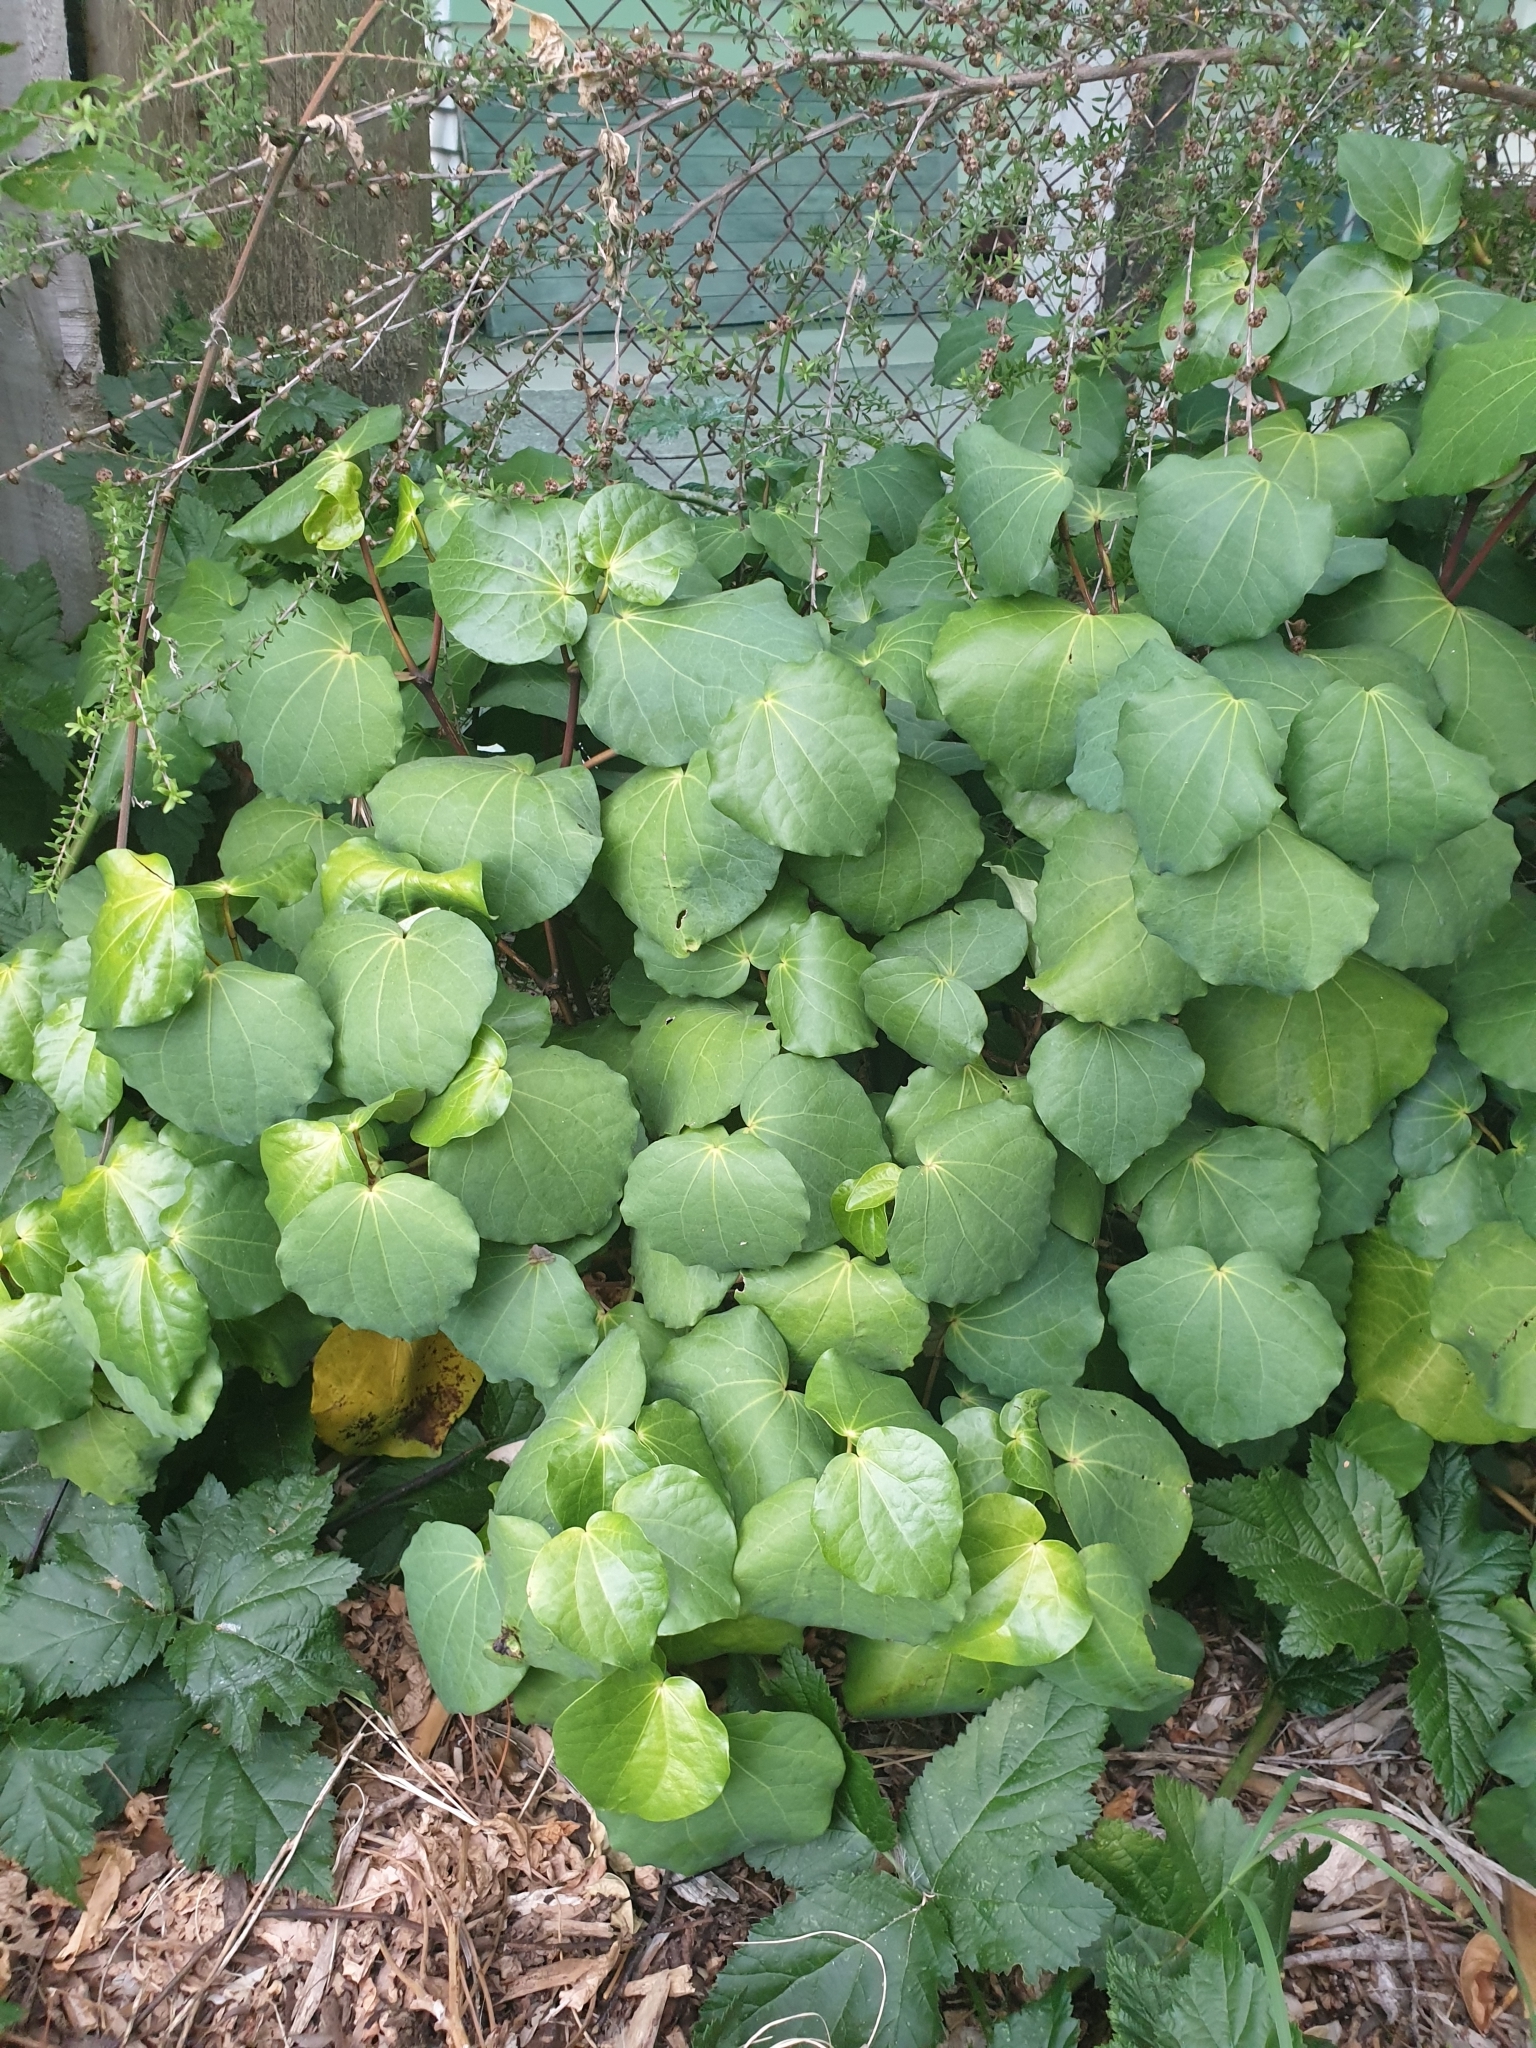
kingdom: Plantae
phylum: Tracheophyta
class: Magnoliopsida
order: Piperales
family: Piperaceae
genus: Macropiper
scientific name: Macropiper excelsum
